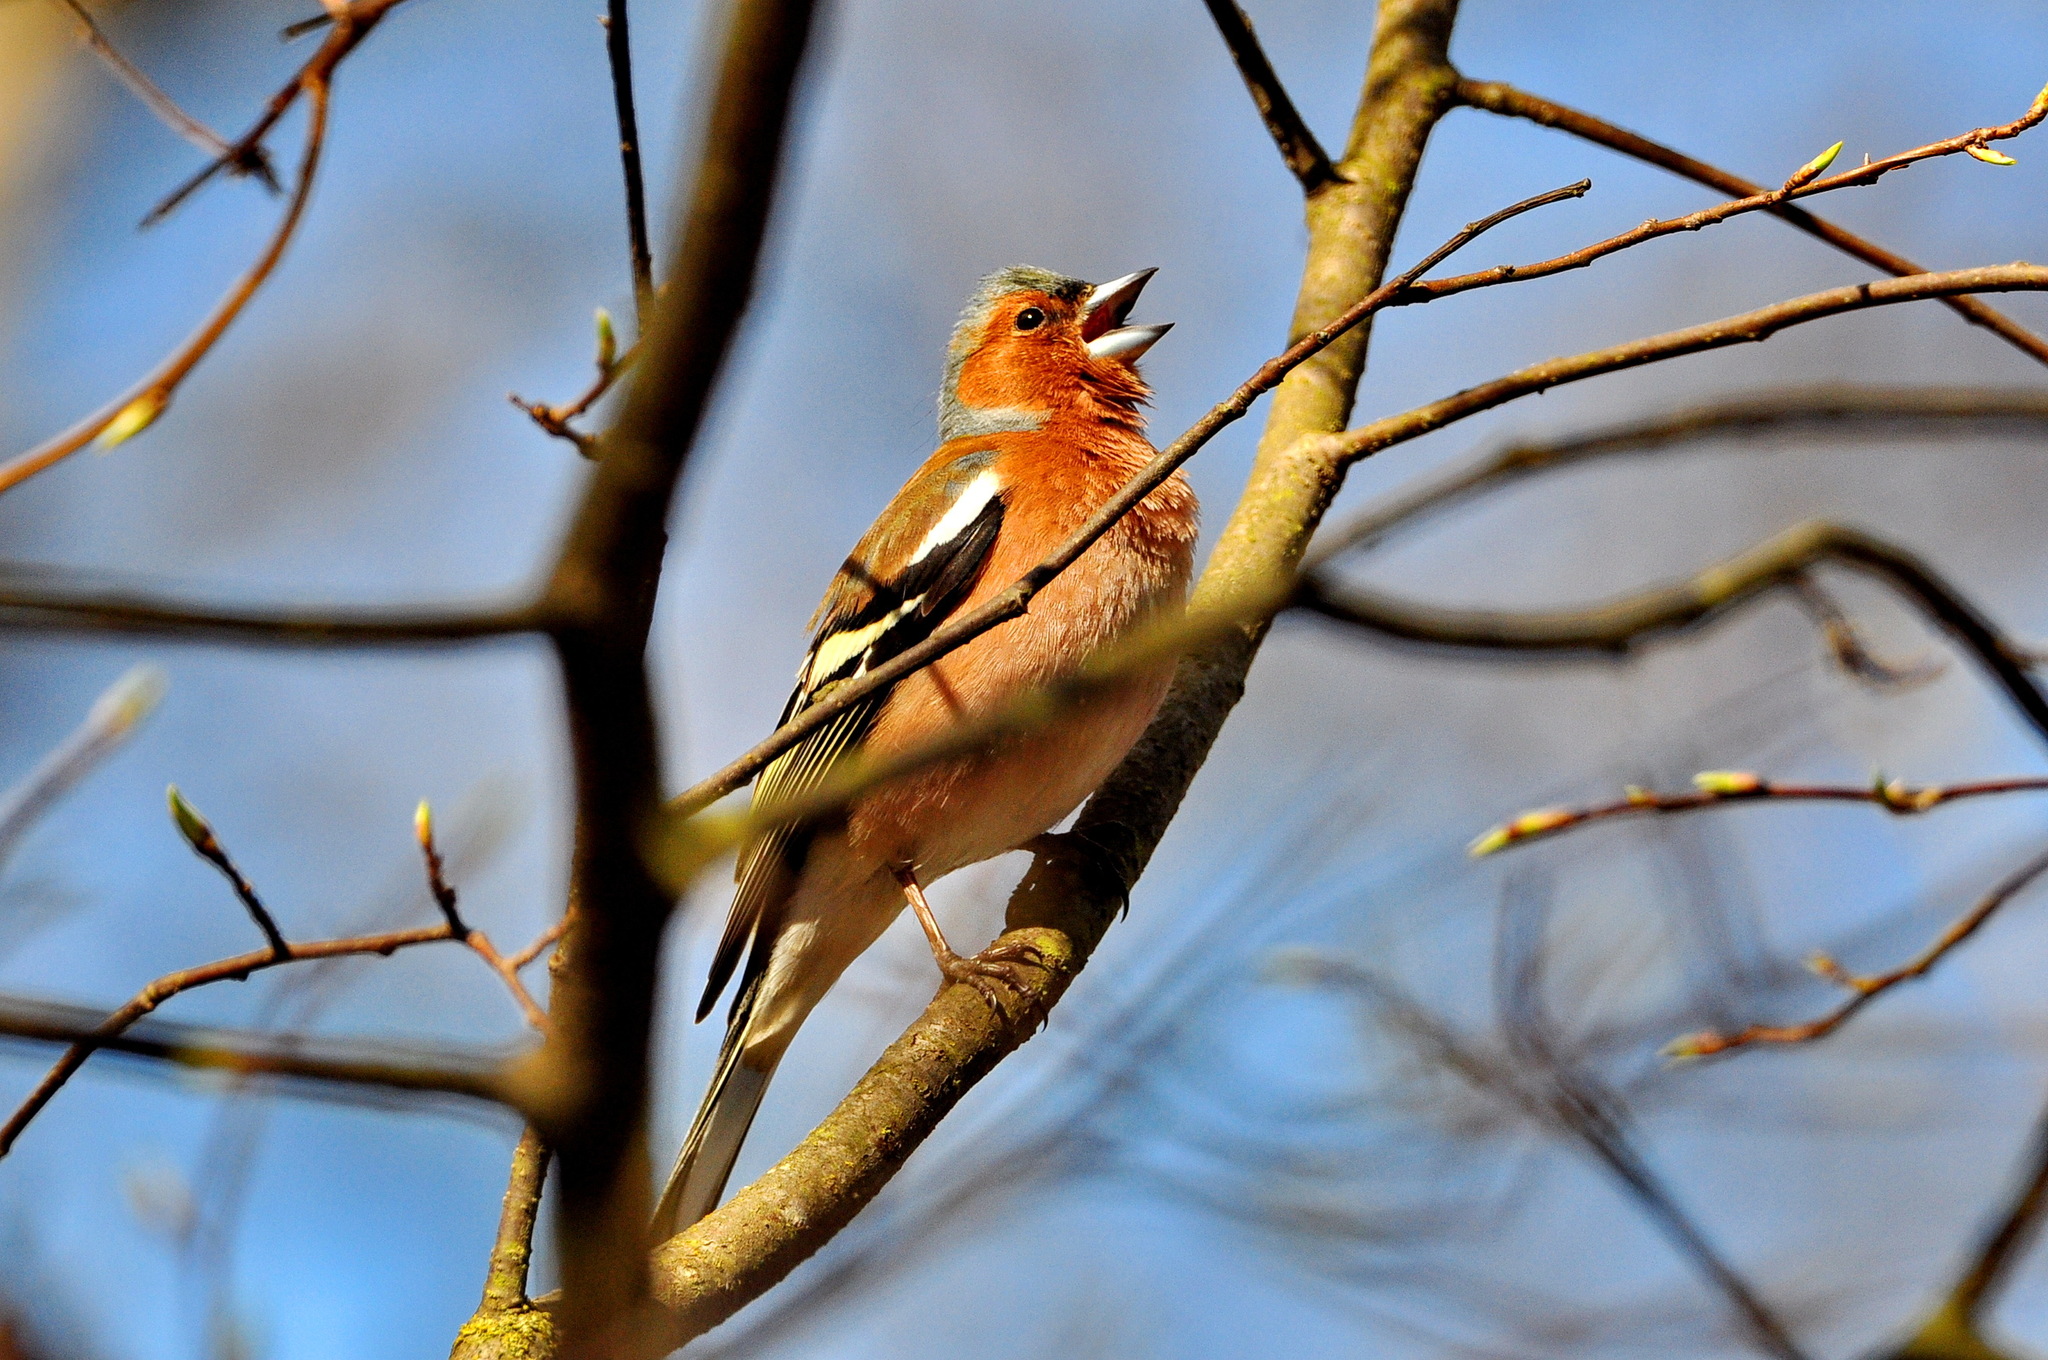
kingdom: Animalia
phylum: Chordata
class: Aves
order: Passeriformes
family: Fringillidae
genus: Fringilla
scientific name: Fringilla coelebs
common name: Common chaffinch
